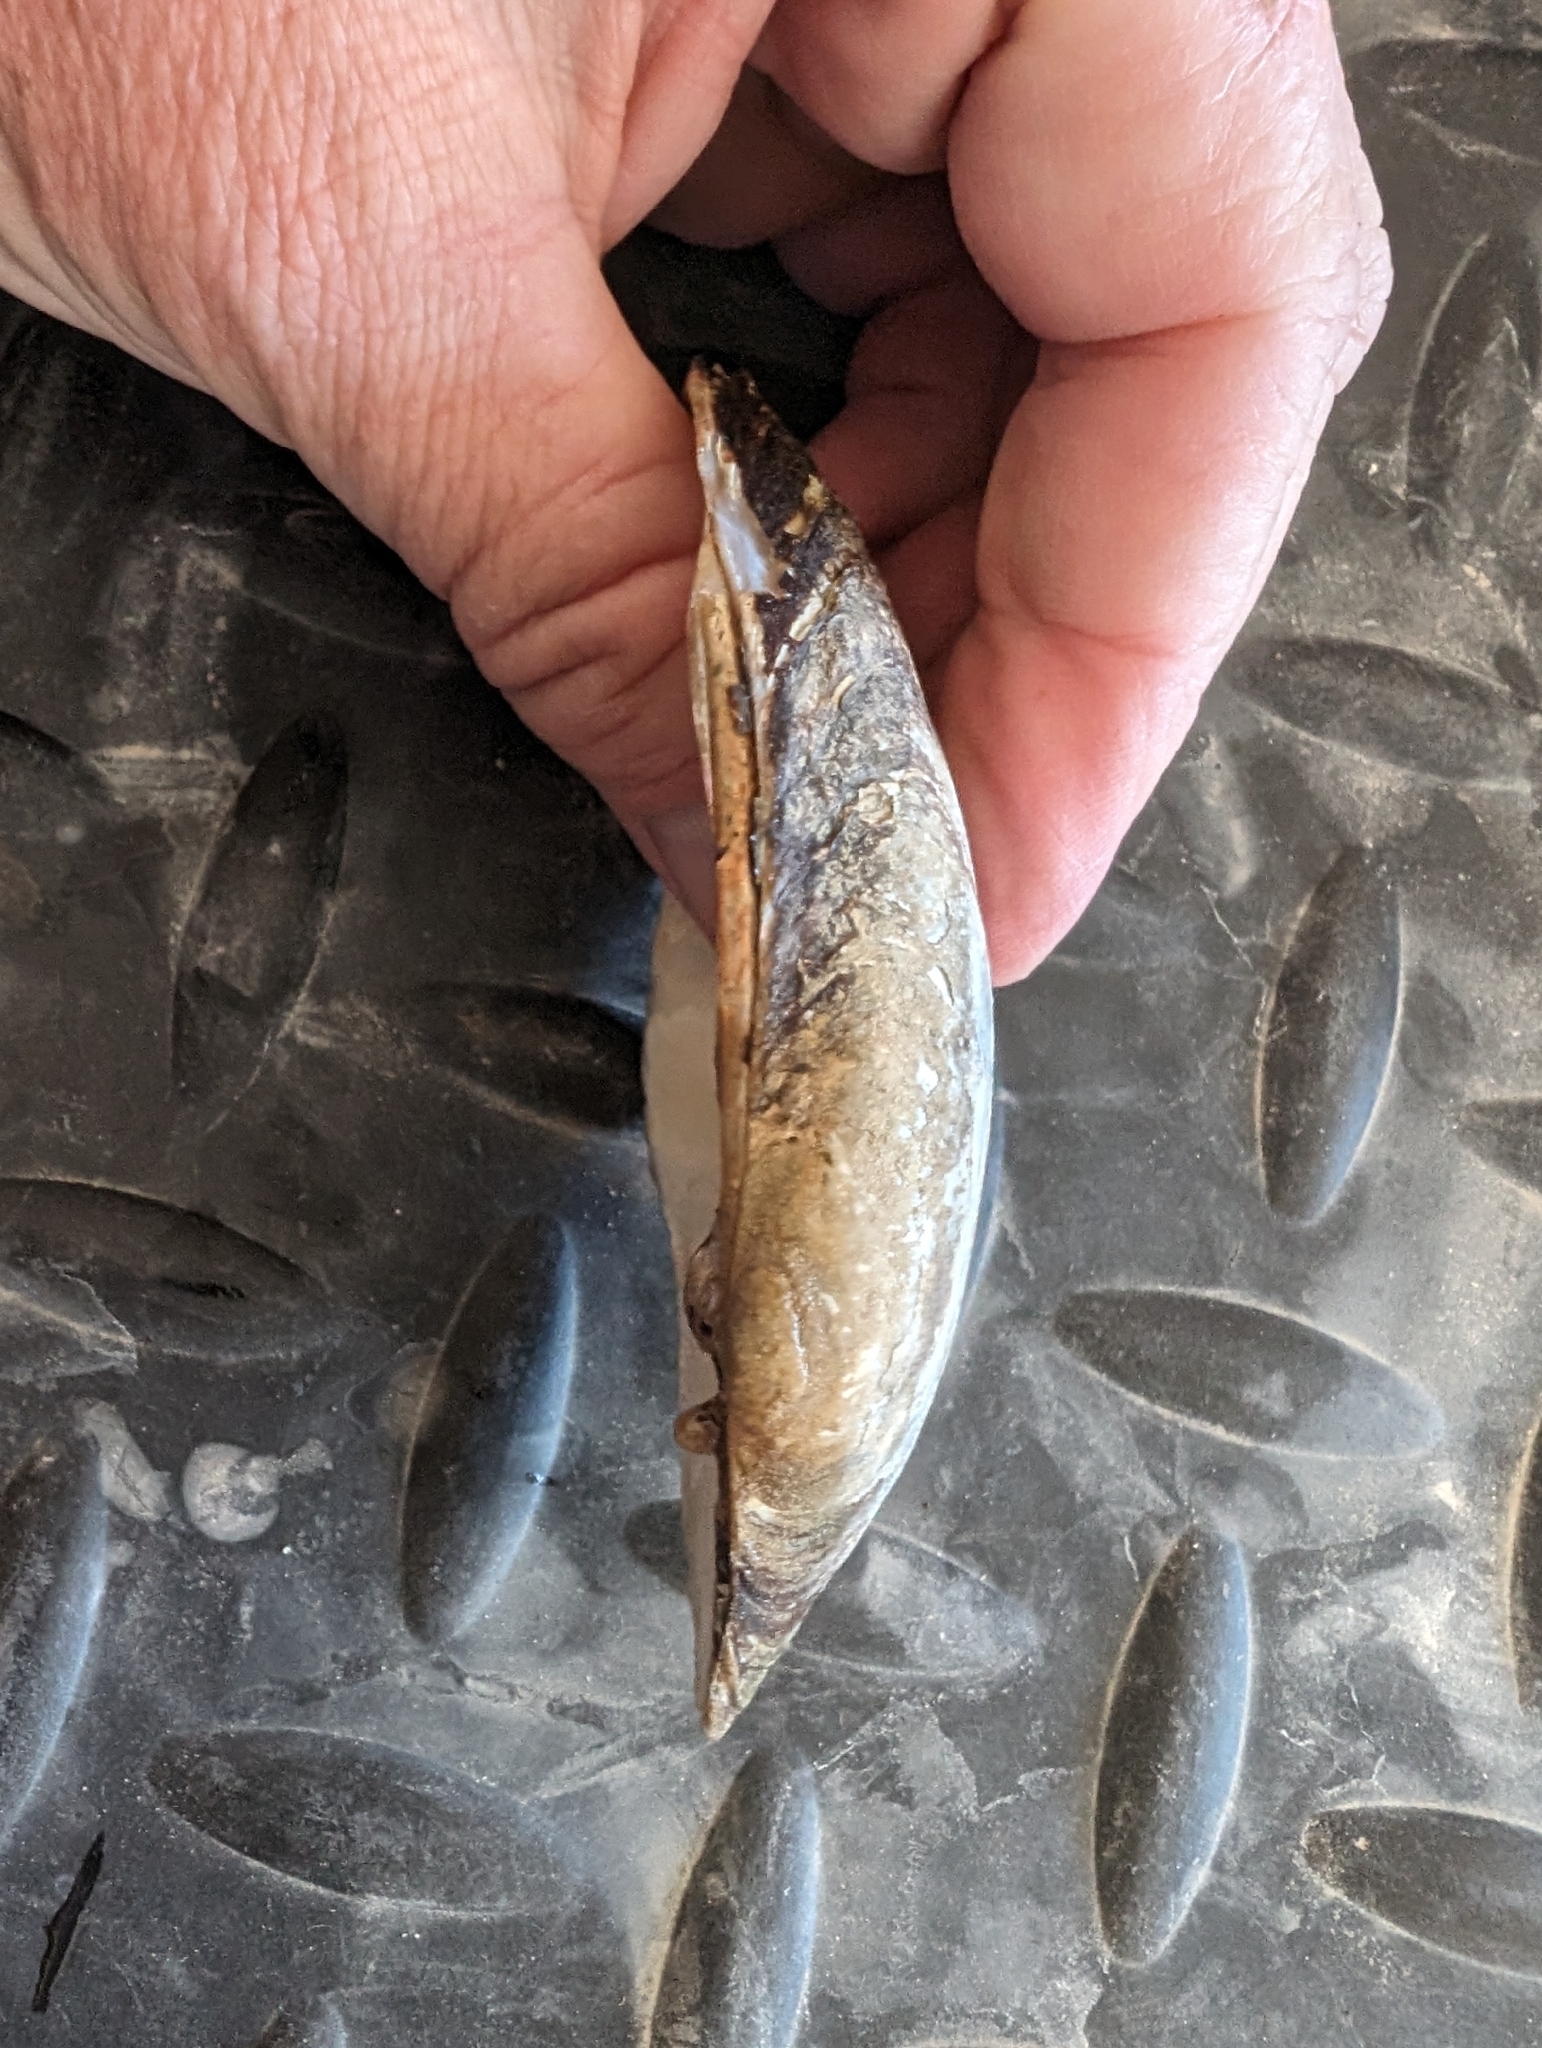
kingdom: Animalia
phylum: Mollusca
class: Bivalvia
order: Unionida
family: Unionidae
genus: Lampsilis
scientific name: Lampsilis siliquoidea
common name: Fatmucket
